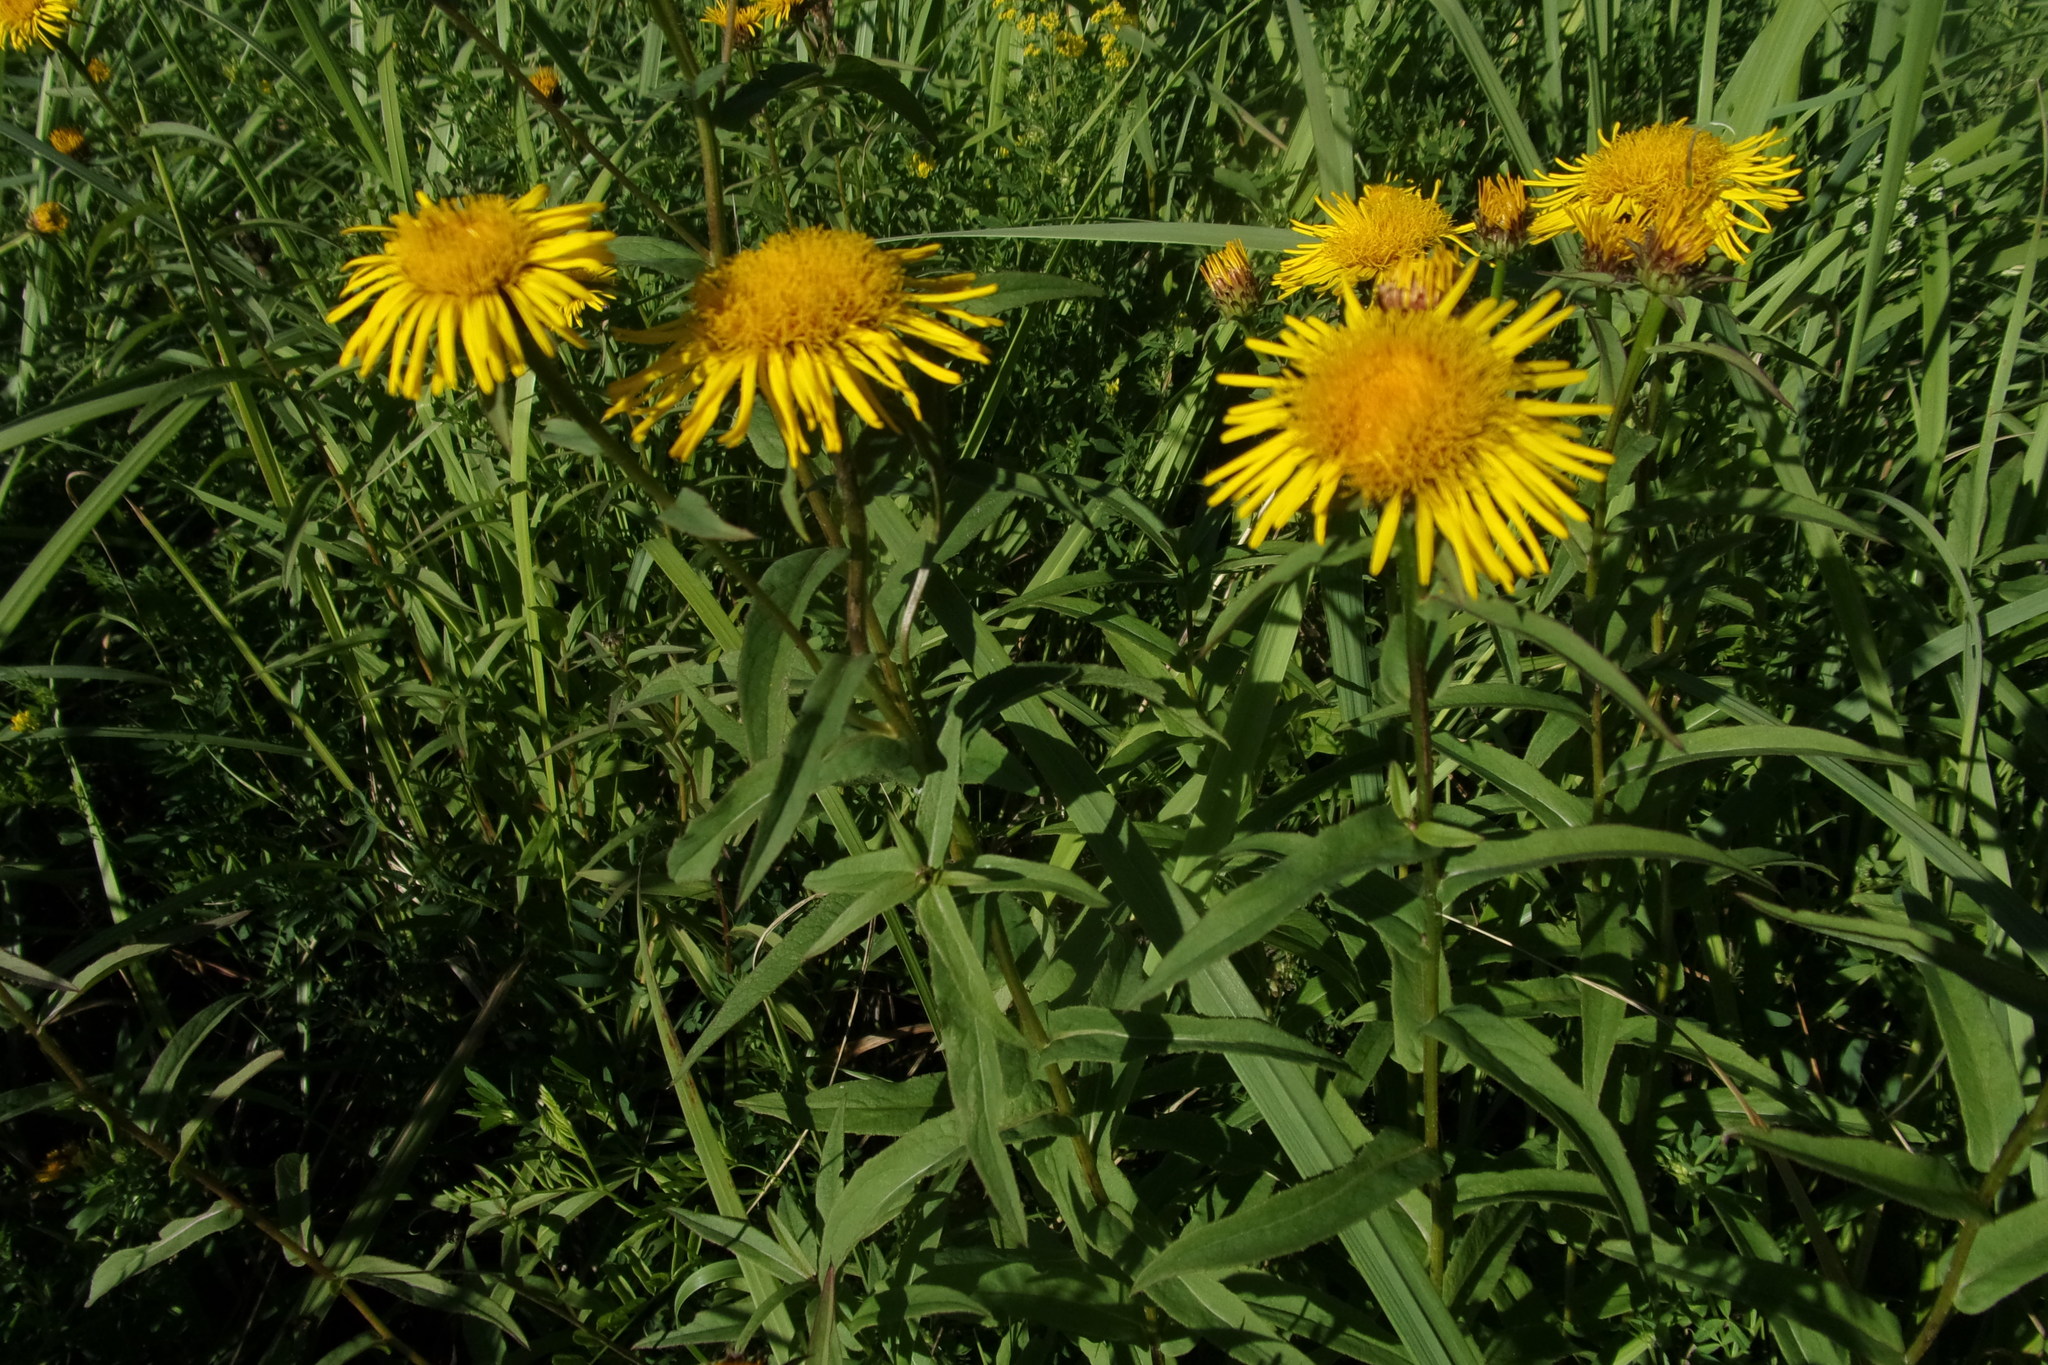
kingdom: Plantae
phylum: Tracheophyta
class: Magnoliopsida
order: Asterales
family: Asteraceae
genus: Pentanema
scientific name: Pentanema salicinum
